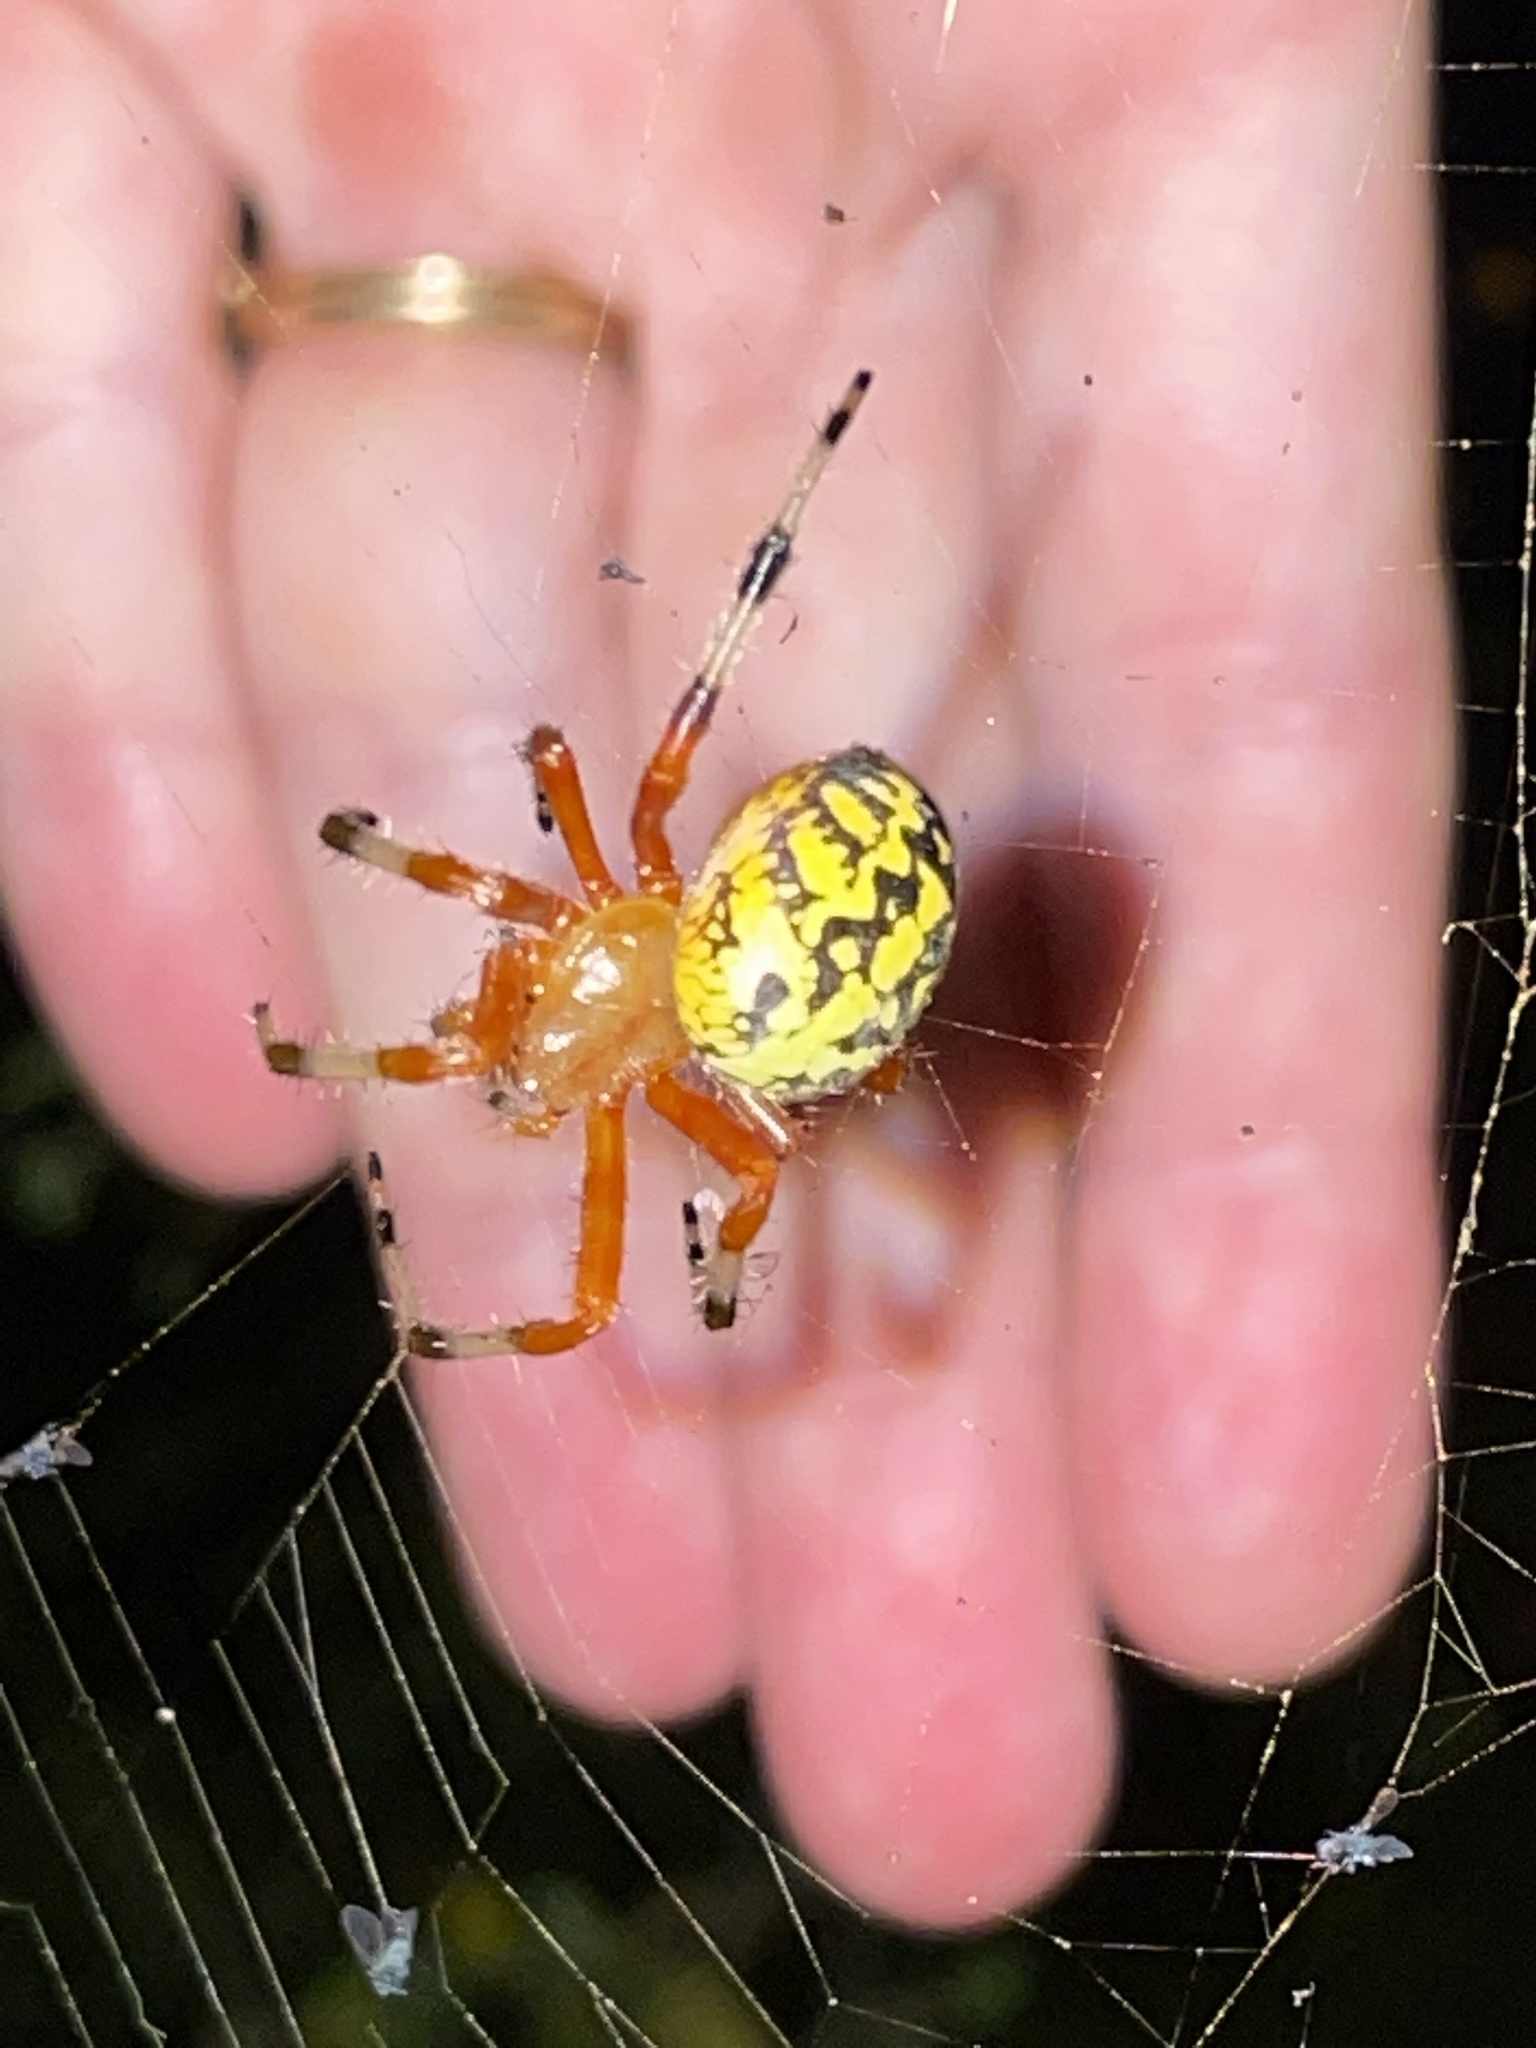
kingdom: Animalia
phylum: Arthropoda
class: Arachnida
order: Araneae
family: Araneidae
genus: Araneus
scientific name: Araneus marmoreus
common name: Marbled orbweaver
